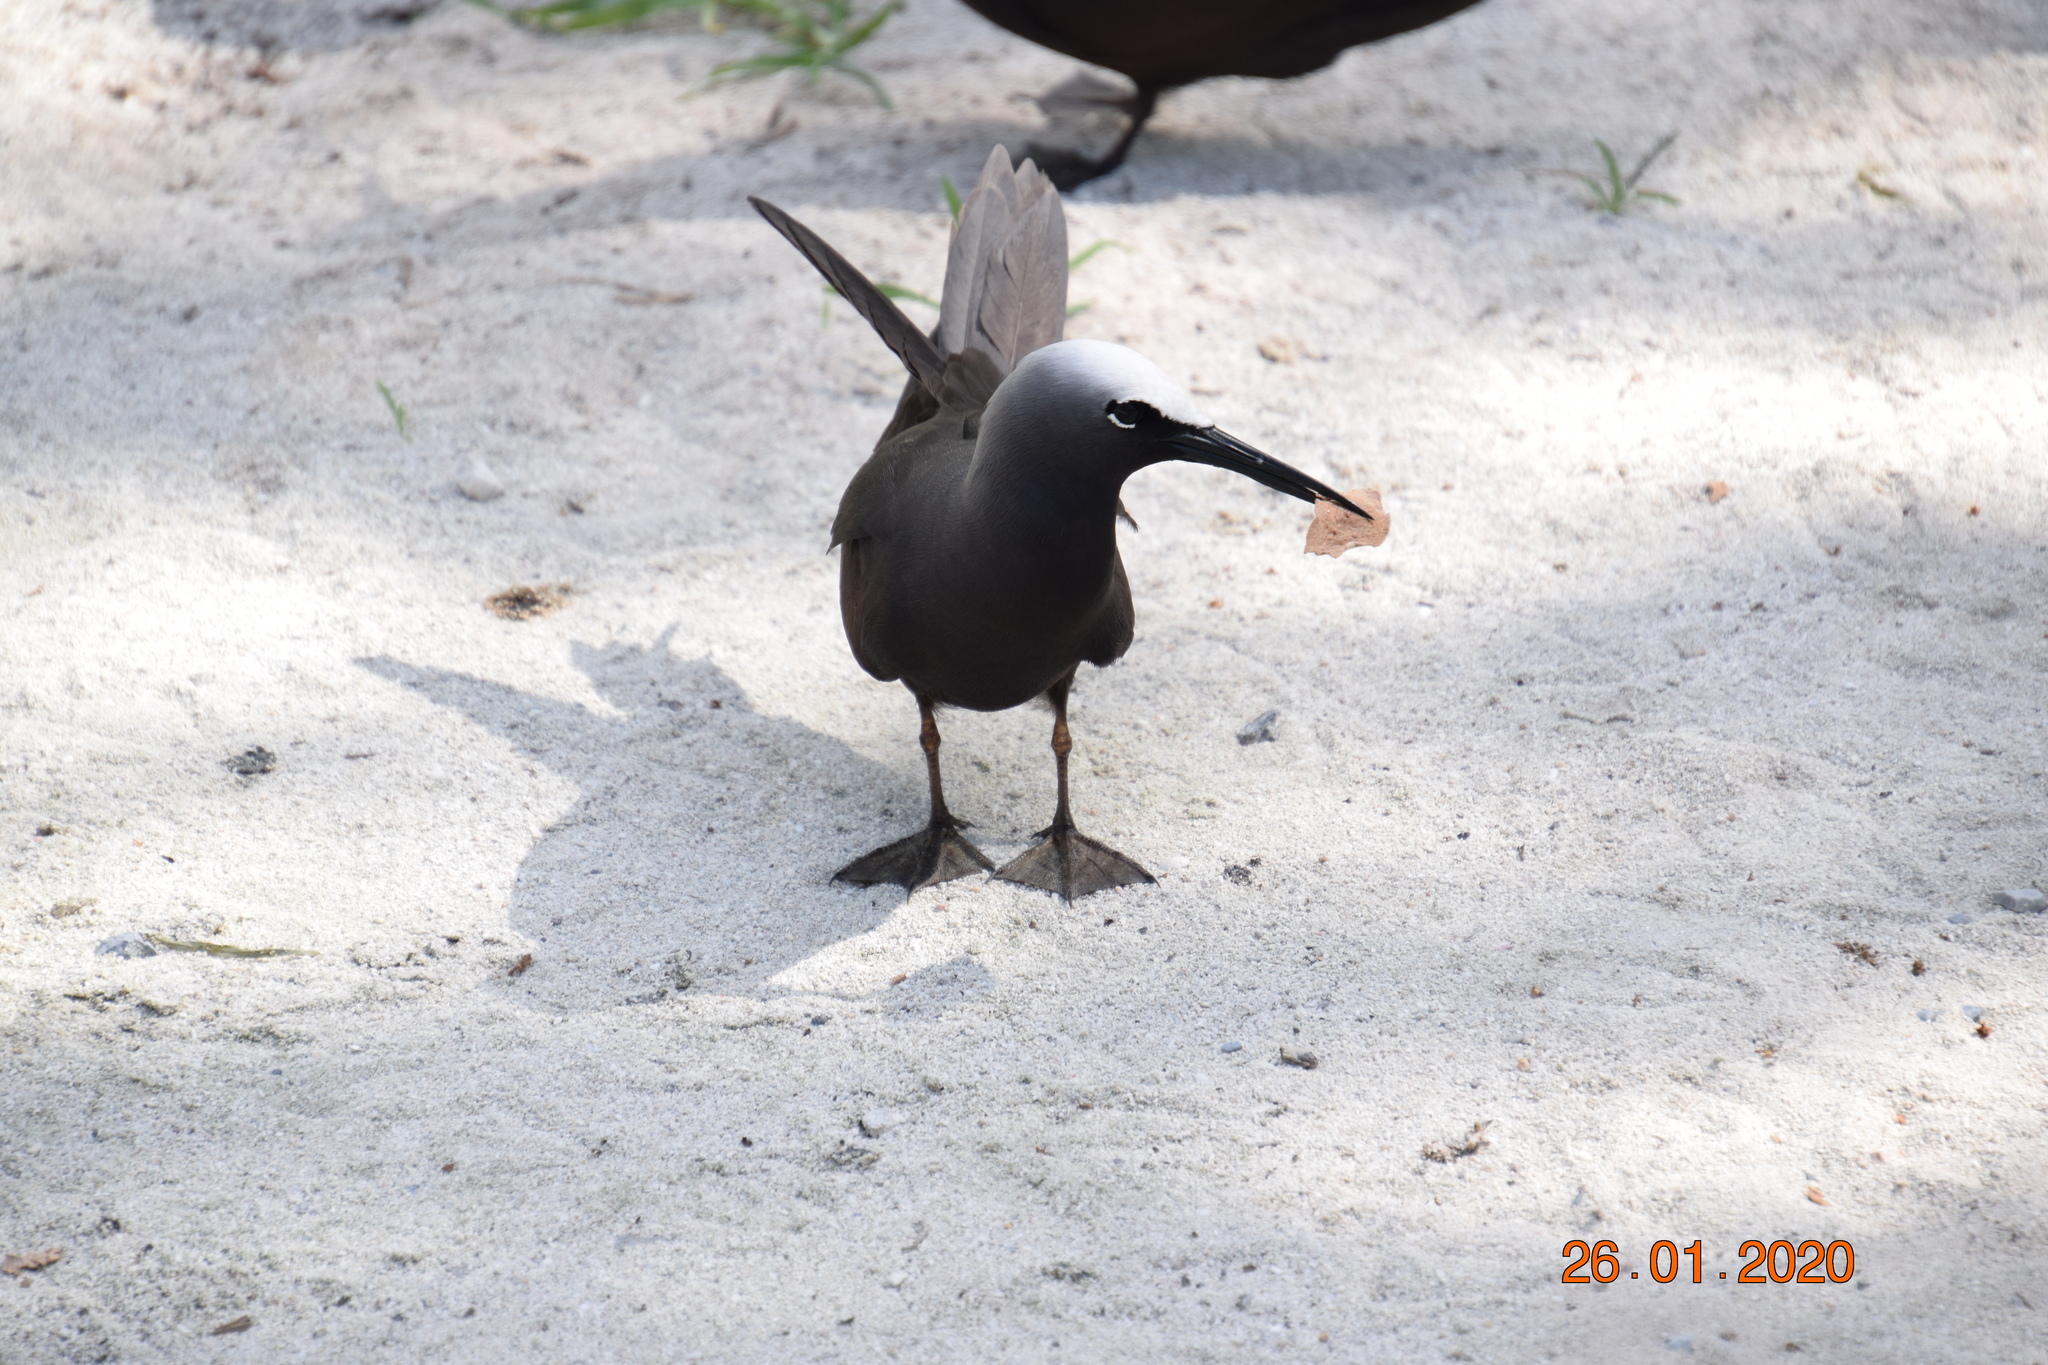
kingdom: Animalia
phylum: Chordata
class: Aves
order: Charadriiformes
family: Laridae
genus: Anous
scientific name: Anous minutus
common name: Black noddy
